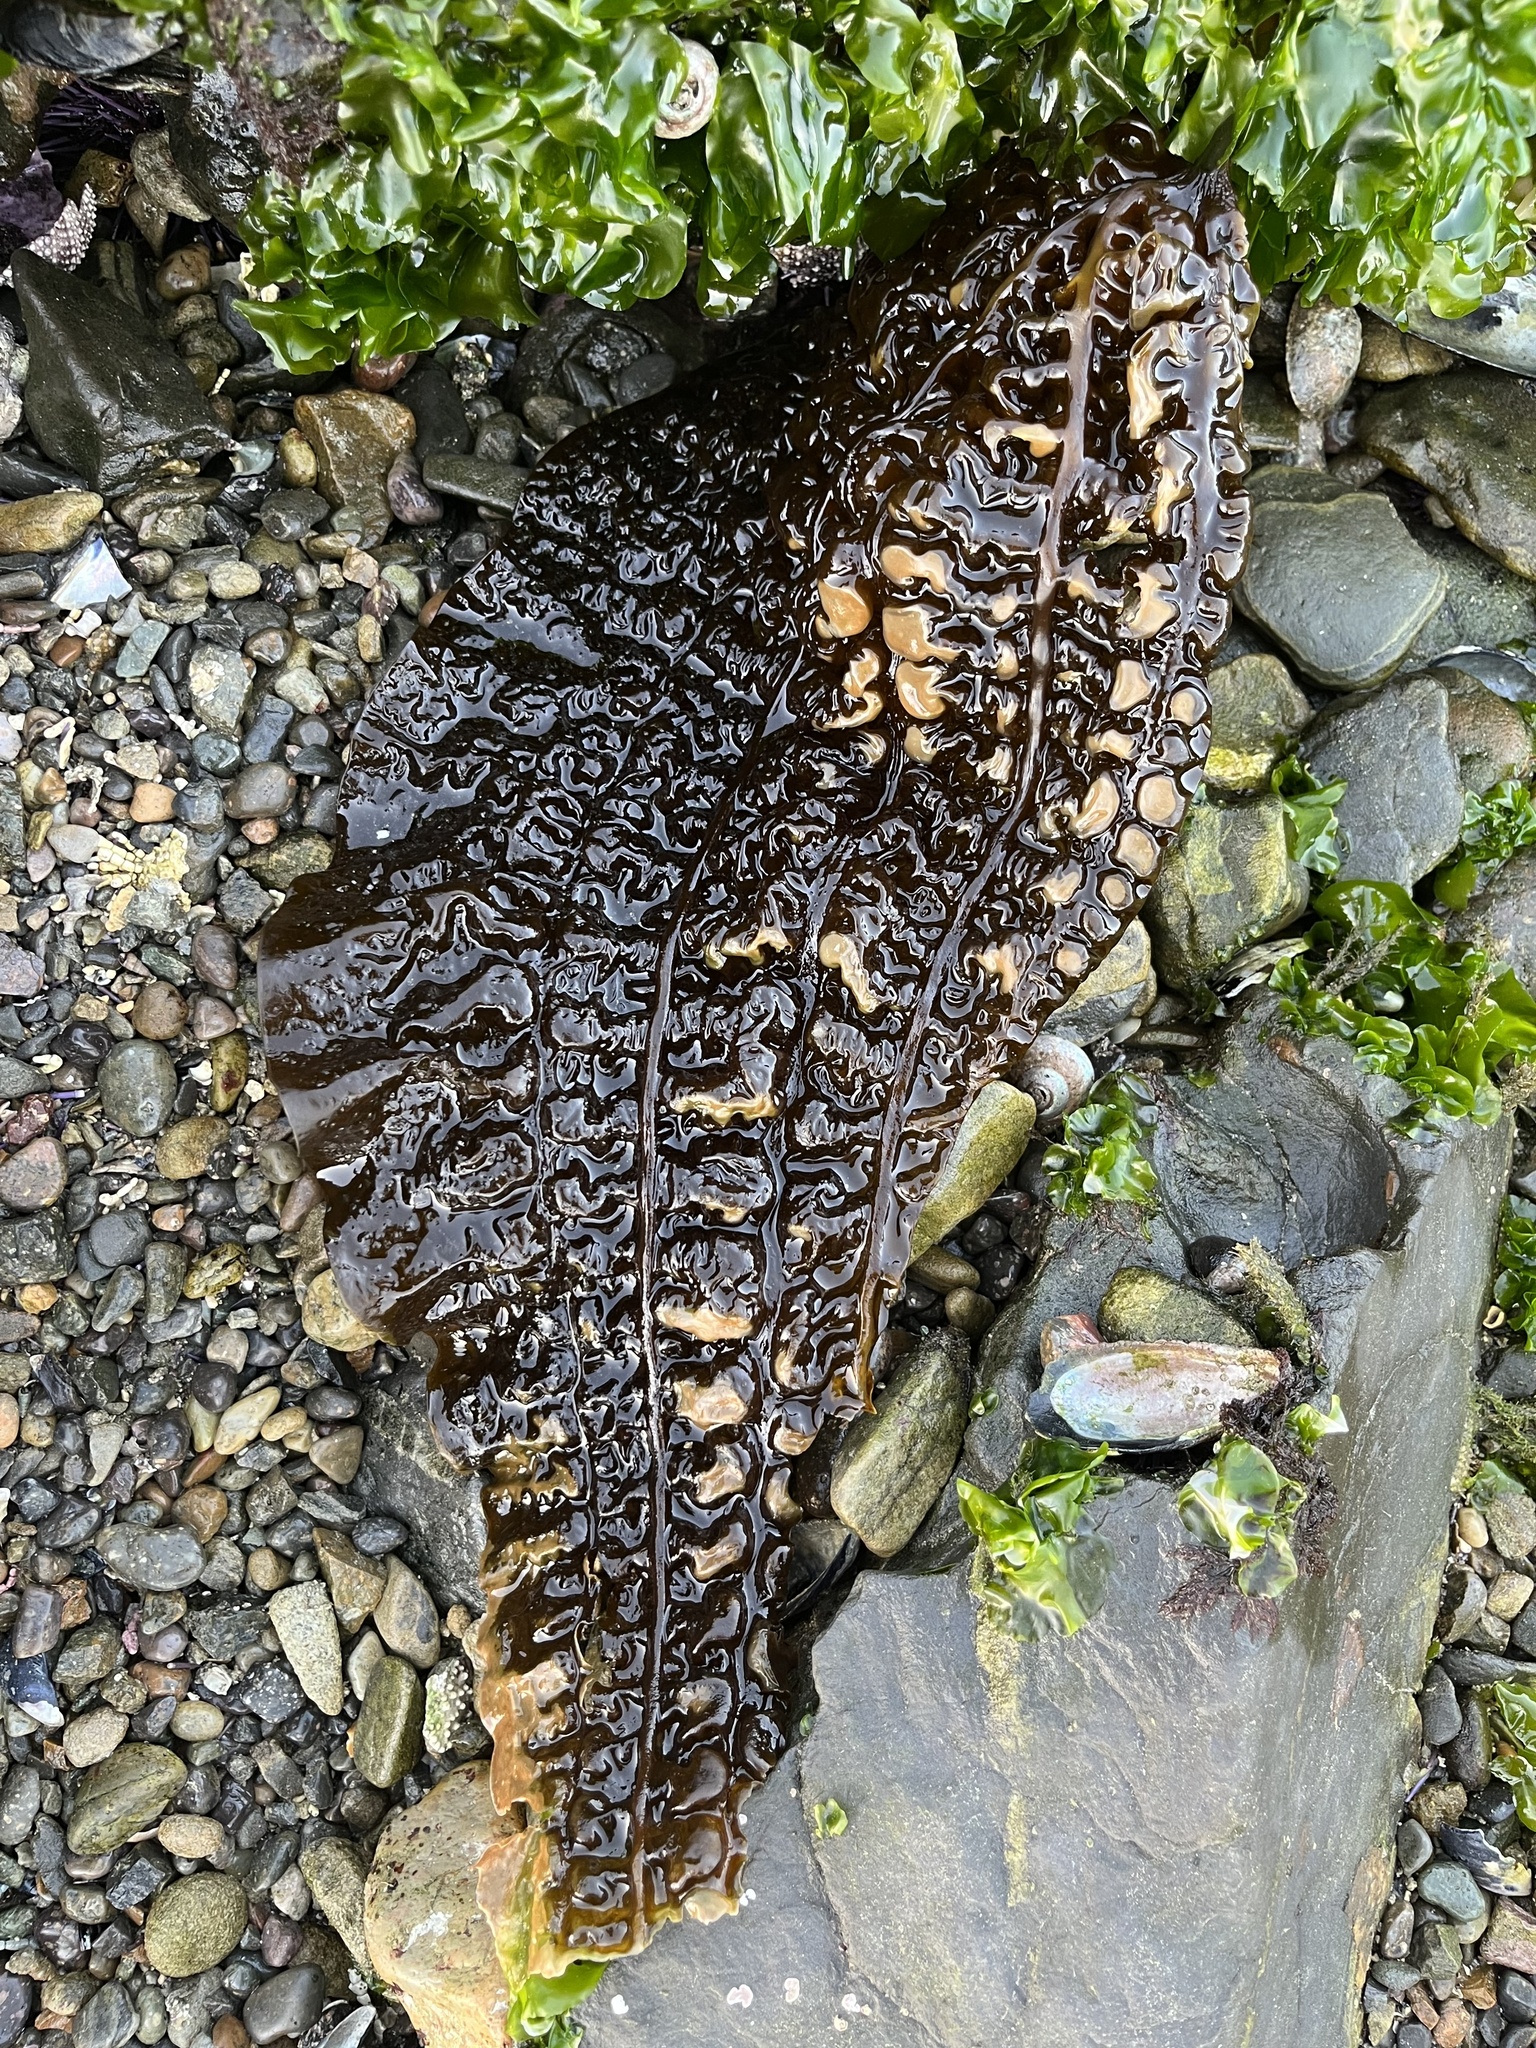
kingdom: Chromista
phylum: Ochrophyta
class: Phaeophyceae
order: Laminariales
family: Costariaceae
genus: Costaria
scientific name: Costaria costata
